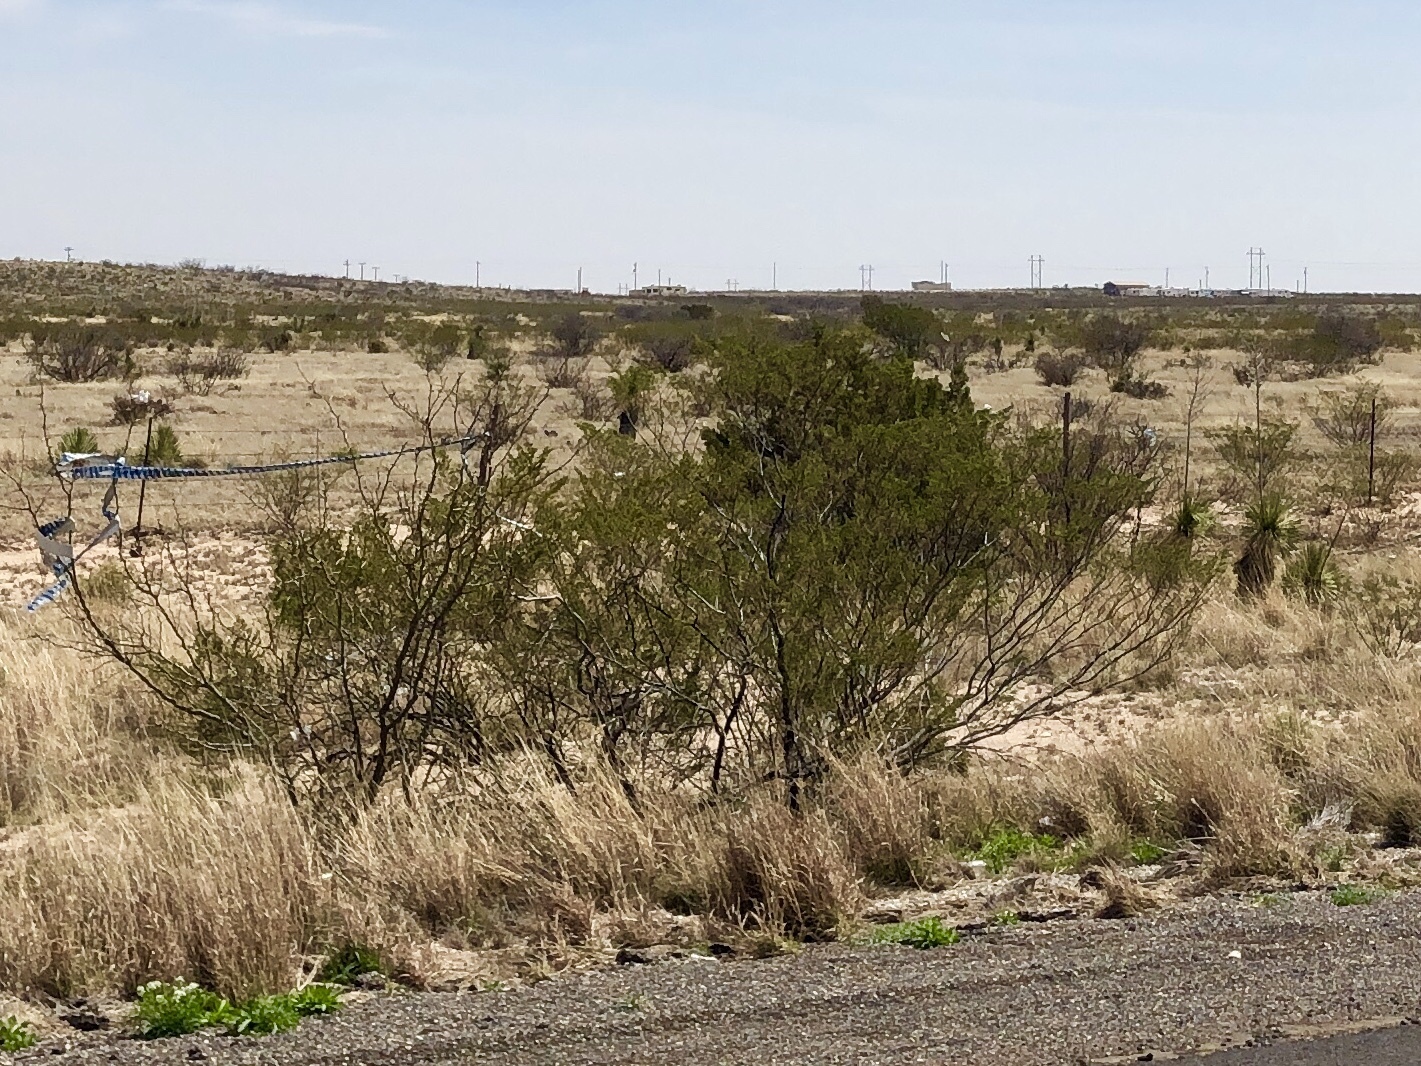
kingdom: Plantae
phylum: Tracheophyta
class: Magnoliopsida
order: Zygophyllales
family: Zygophyllaceae
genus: Larrea
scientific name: Larrea tridentata
